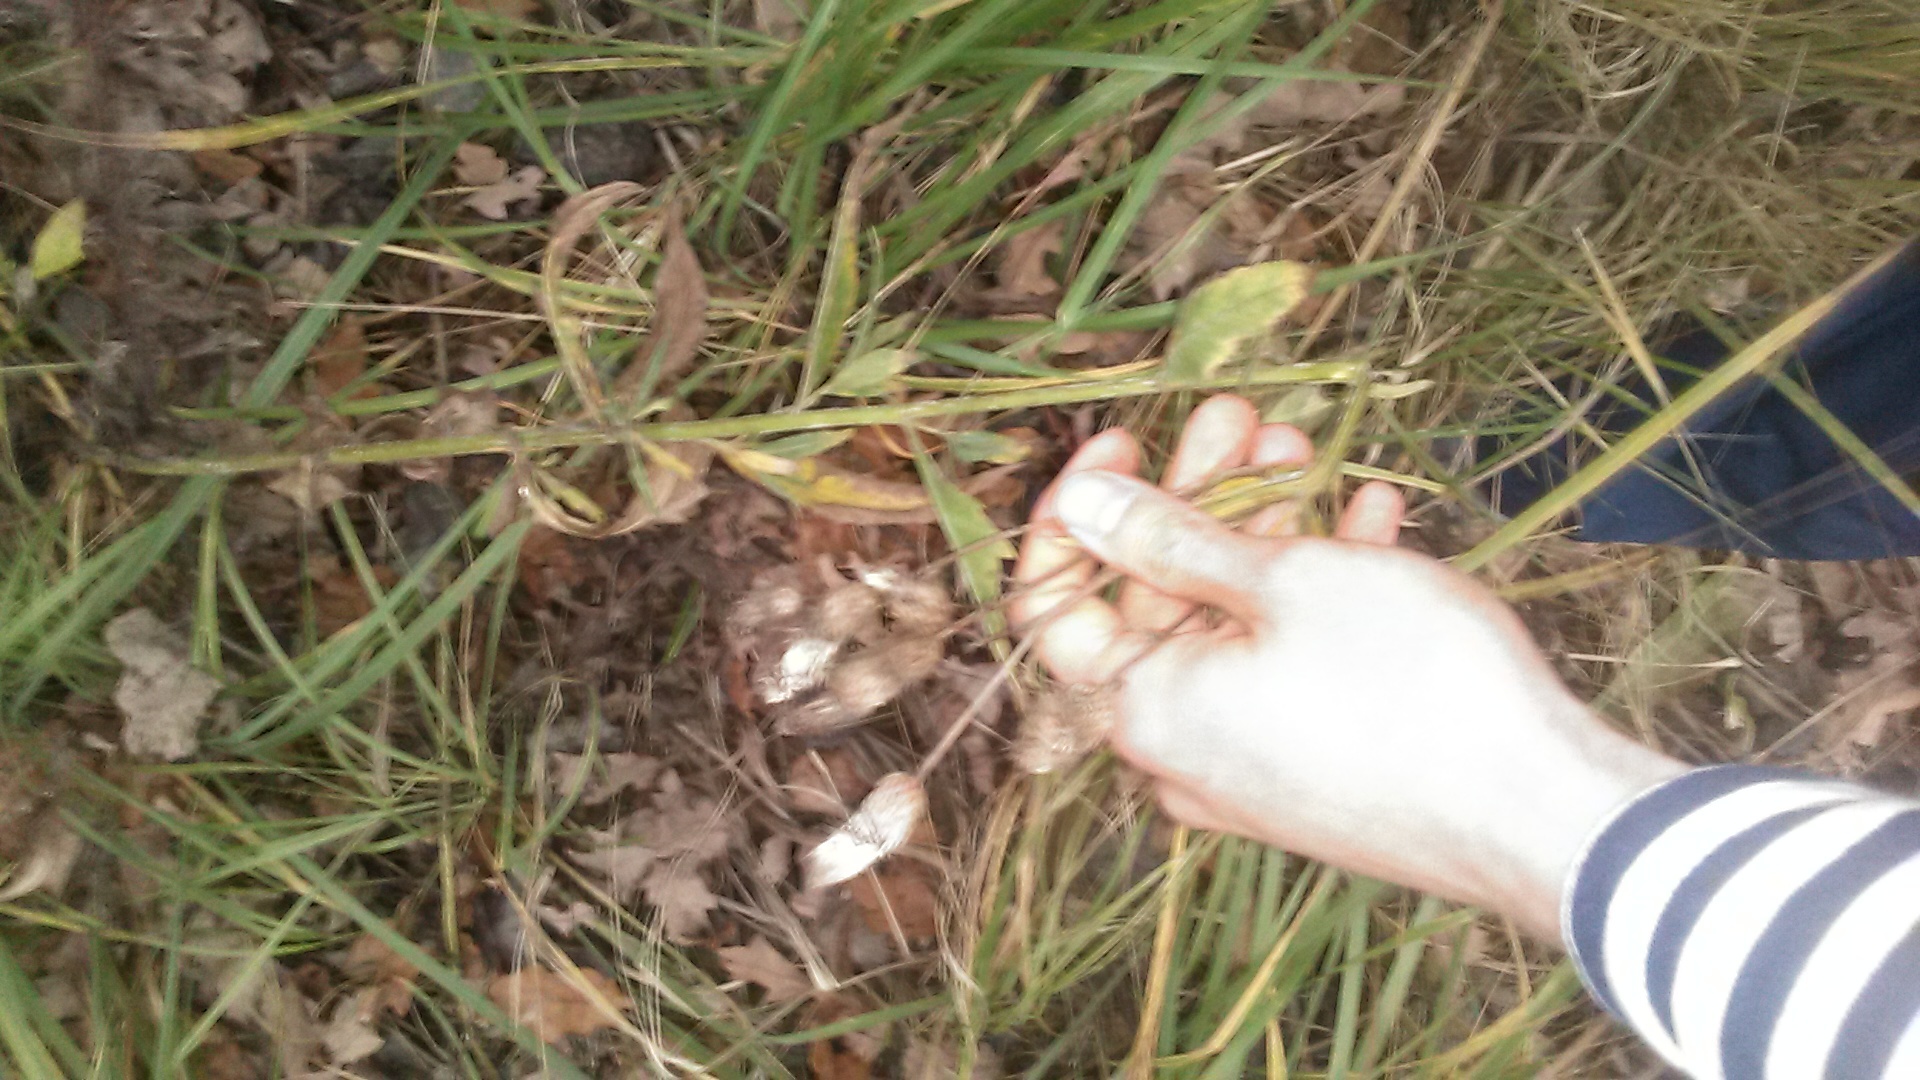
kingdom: Plantae
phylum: Tracheophyta
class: Magnoliopsida
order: Asterales
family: Asteraceae
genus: Cirsium
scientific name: Cirsium arvense
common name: Creeping thistle
